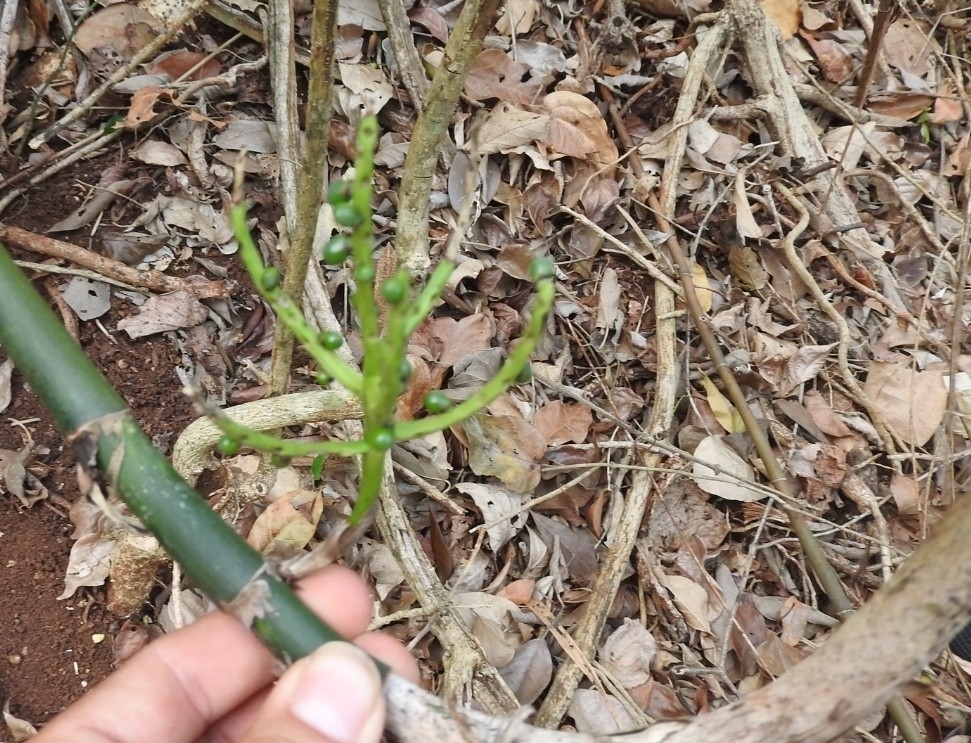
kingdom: Plantae
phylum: Tracheophyta
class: Liliopsida
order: Arecales
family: Arecaceae
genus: Dypsis
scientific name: Dypsis lutescens
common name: Yellow butterfly palm
